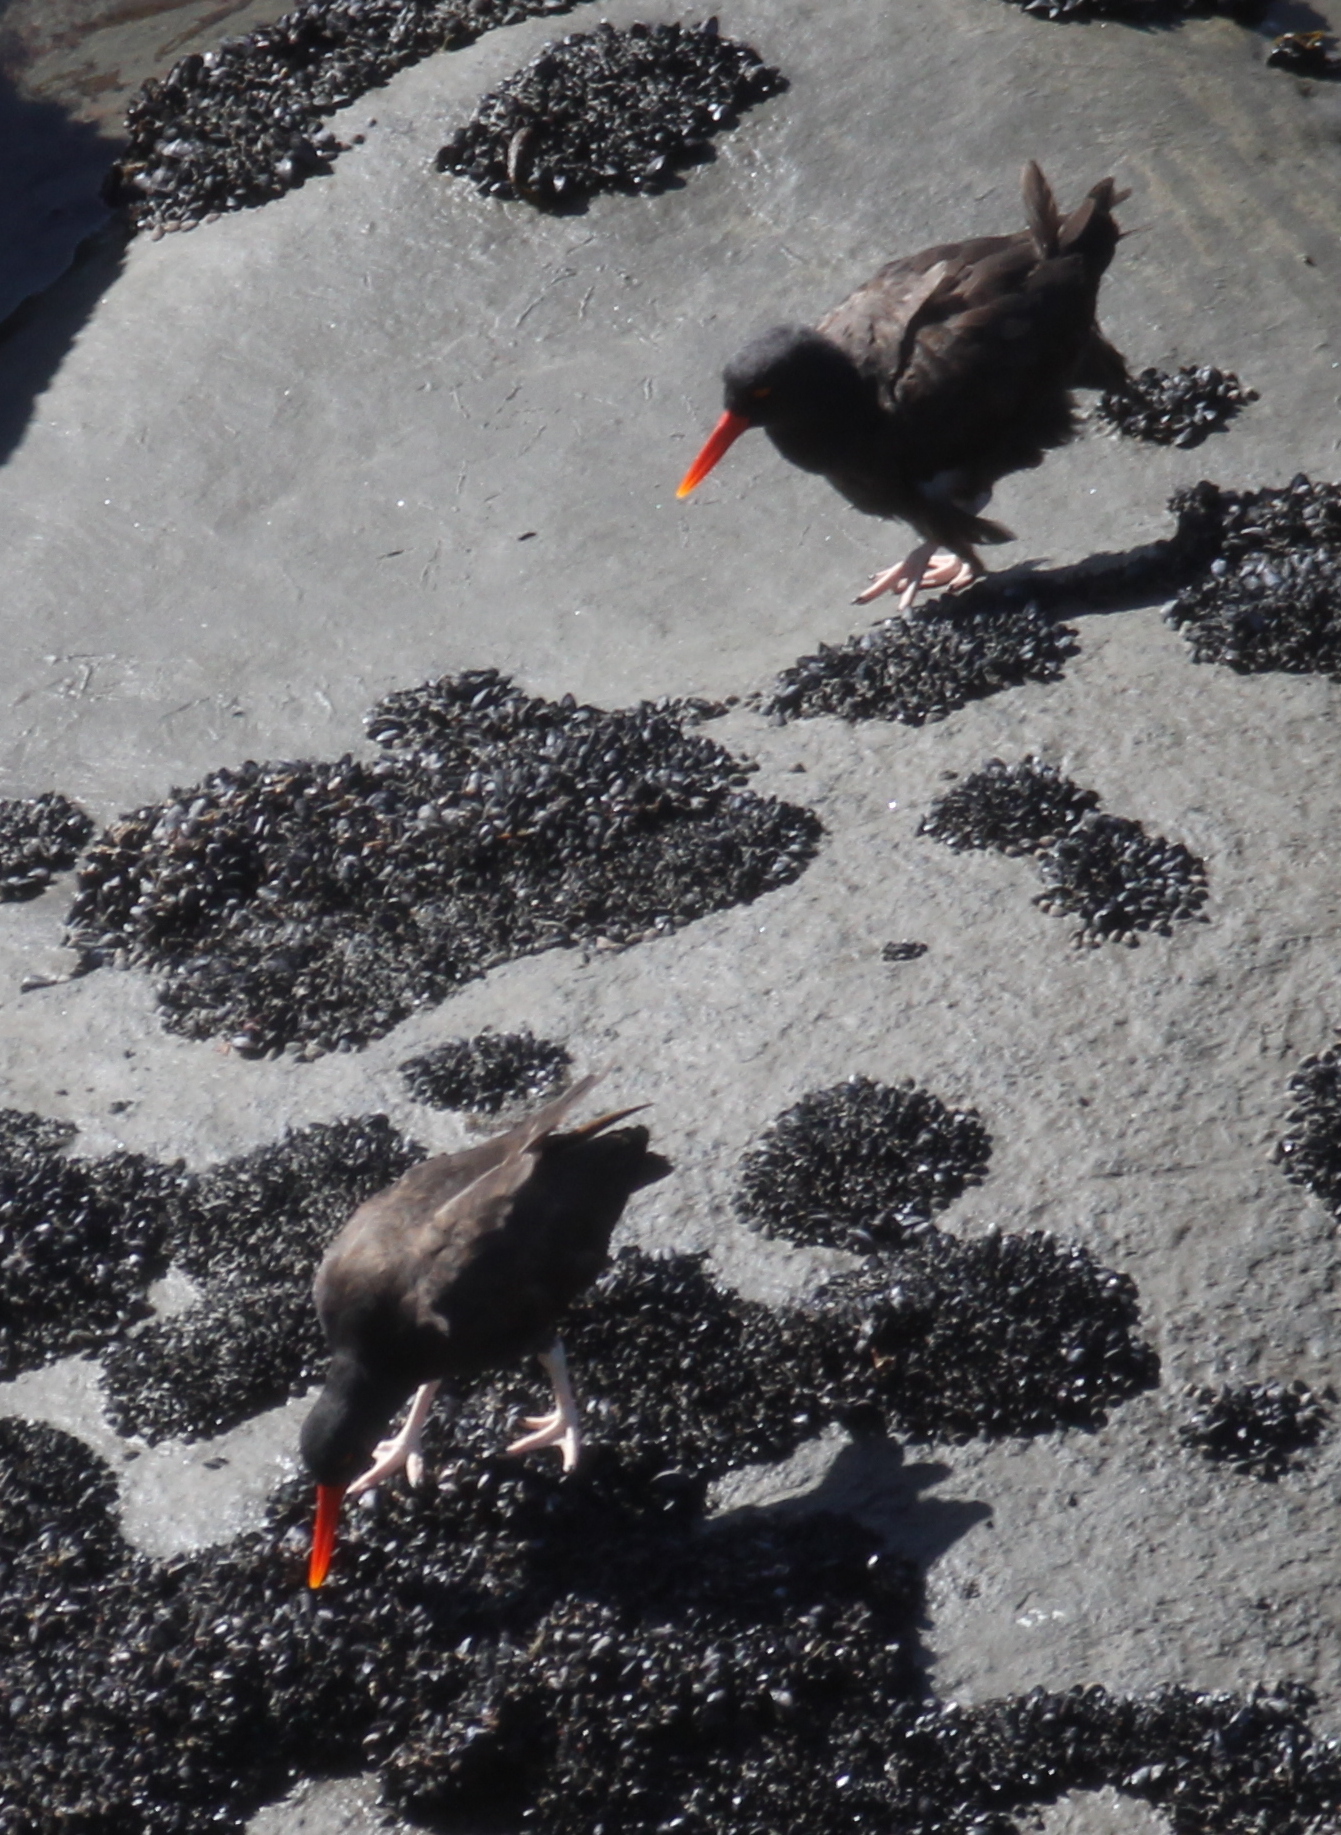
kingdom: Animalia
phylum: Chordata
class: Aves
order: Charadriiformes
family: Haematopodidae
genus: Haematopus
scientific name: Haematopus ater
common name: Blackish oystercatcher
